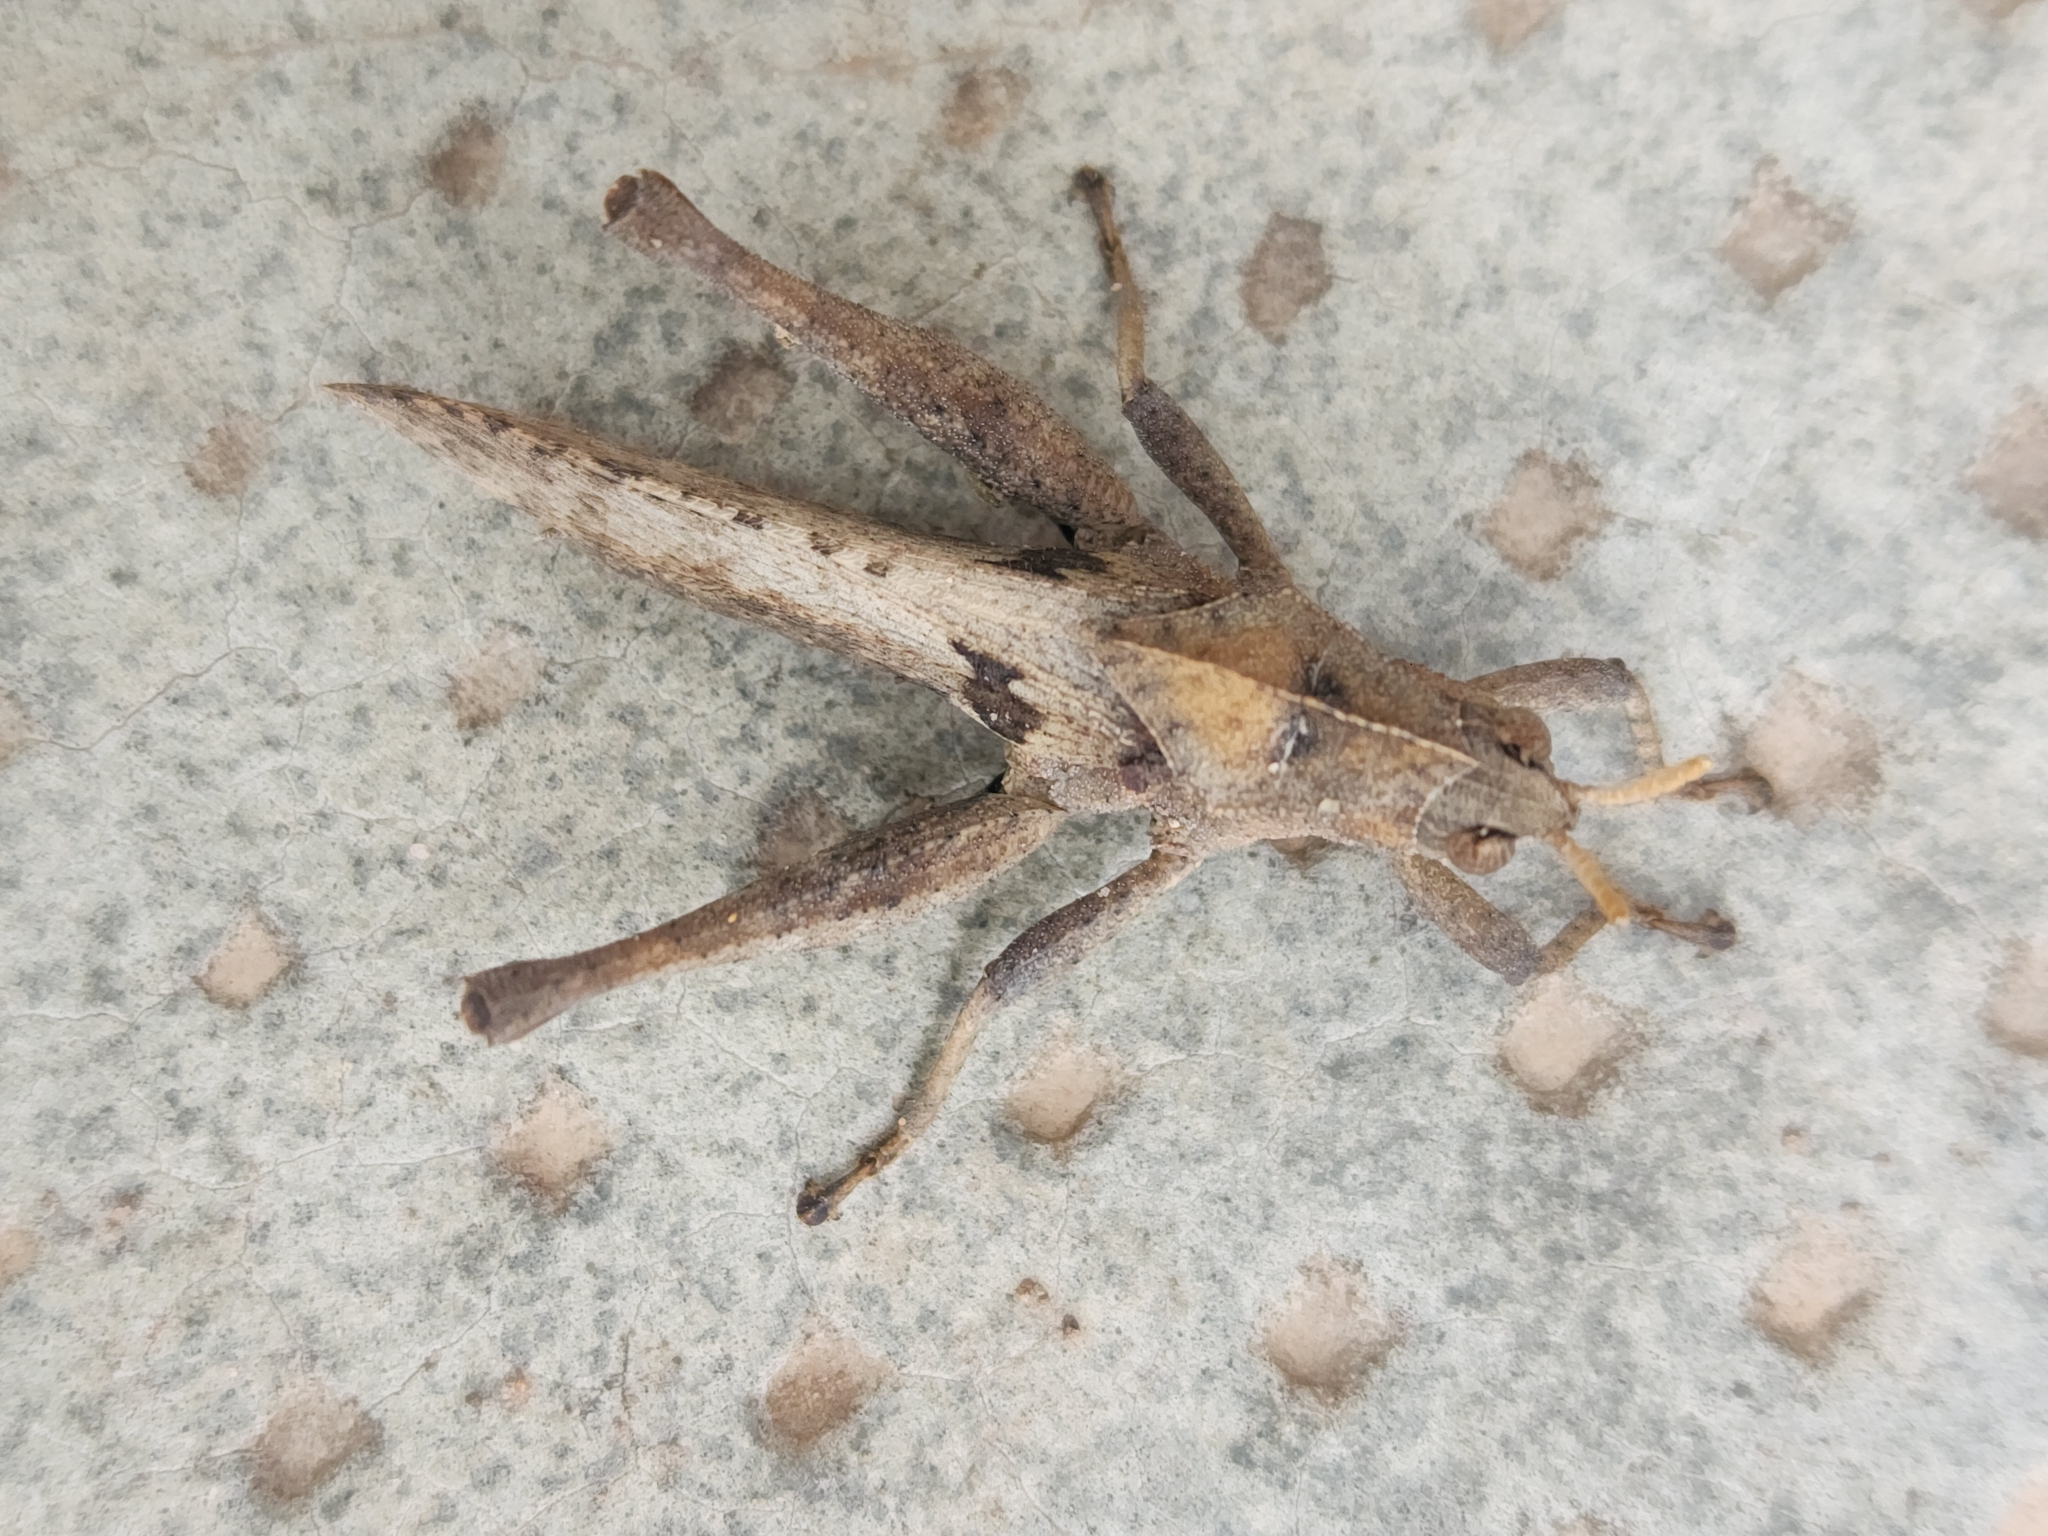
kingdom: Animalia
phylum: Arthropoda
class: Insecta
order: Orthoptera
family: Romaleidae
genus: Xyleus
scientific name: Xyleus modestus
